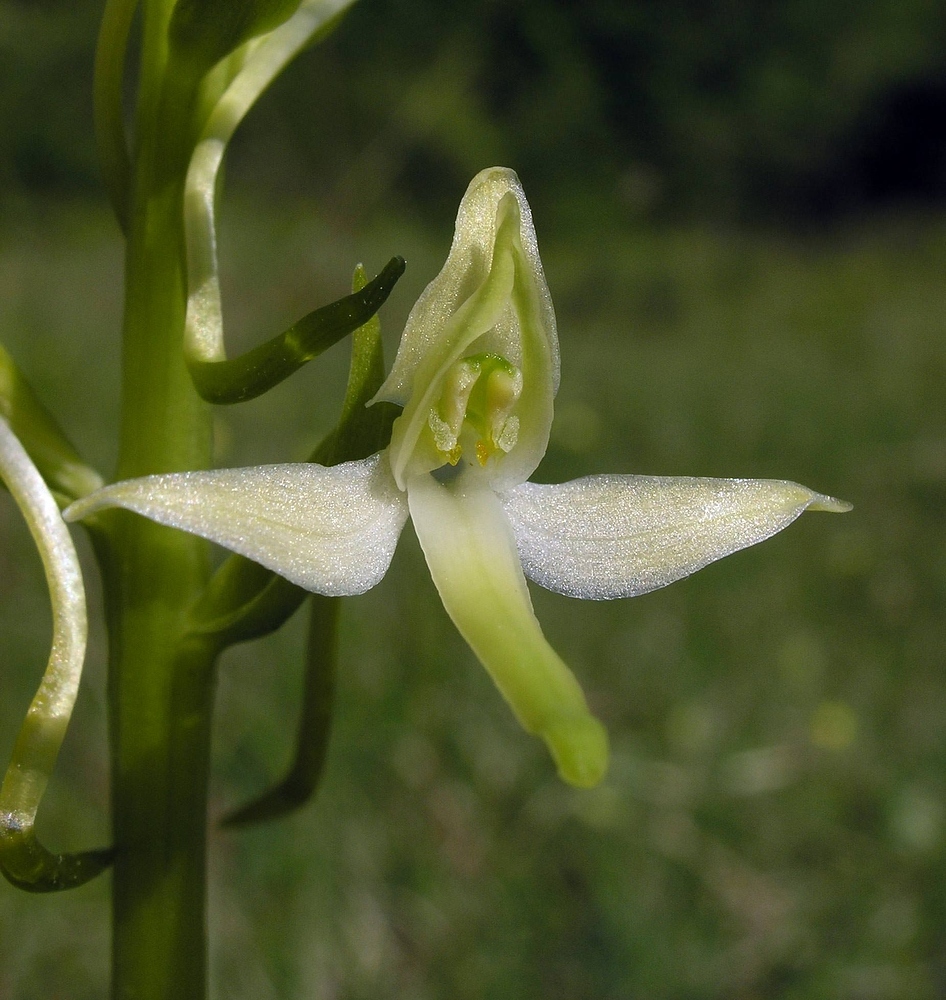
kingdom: Plantae
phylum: Tracheophyta
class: Liliopsida
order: Asparagales
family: Orchidaceae
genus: Platanthera
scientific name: Platanthera bifolia
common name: Lesser butterfly-orchid
